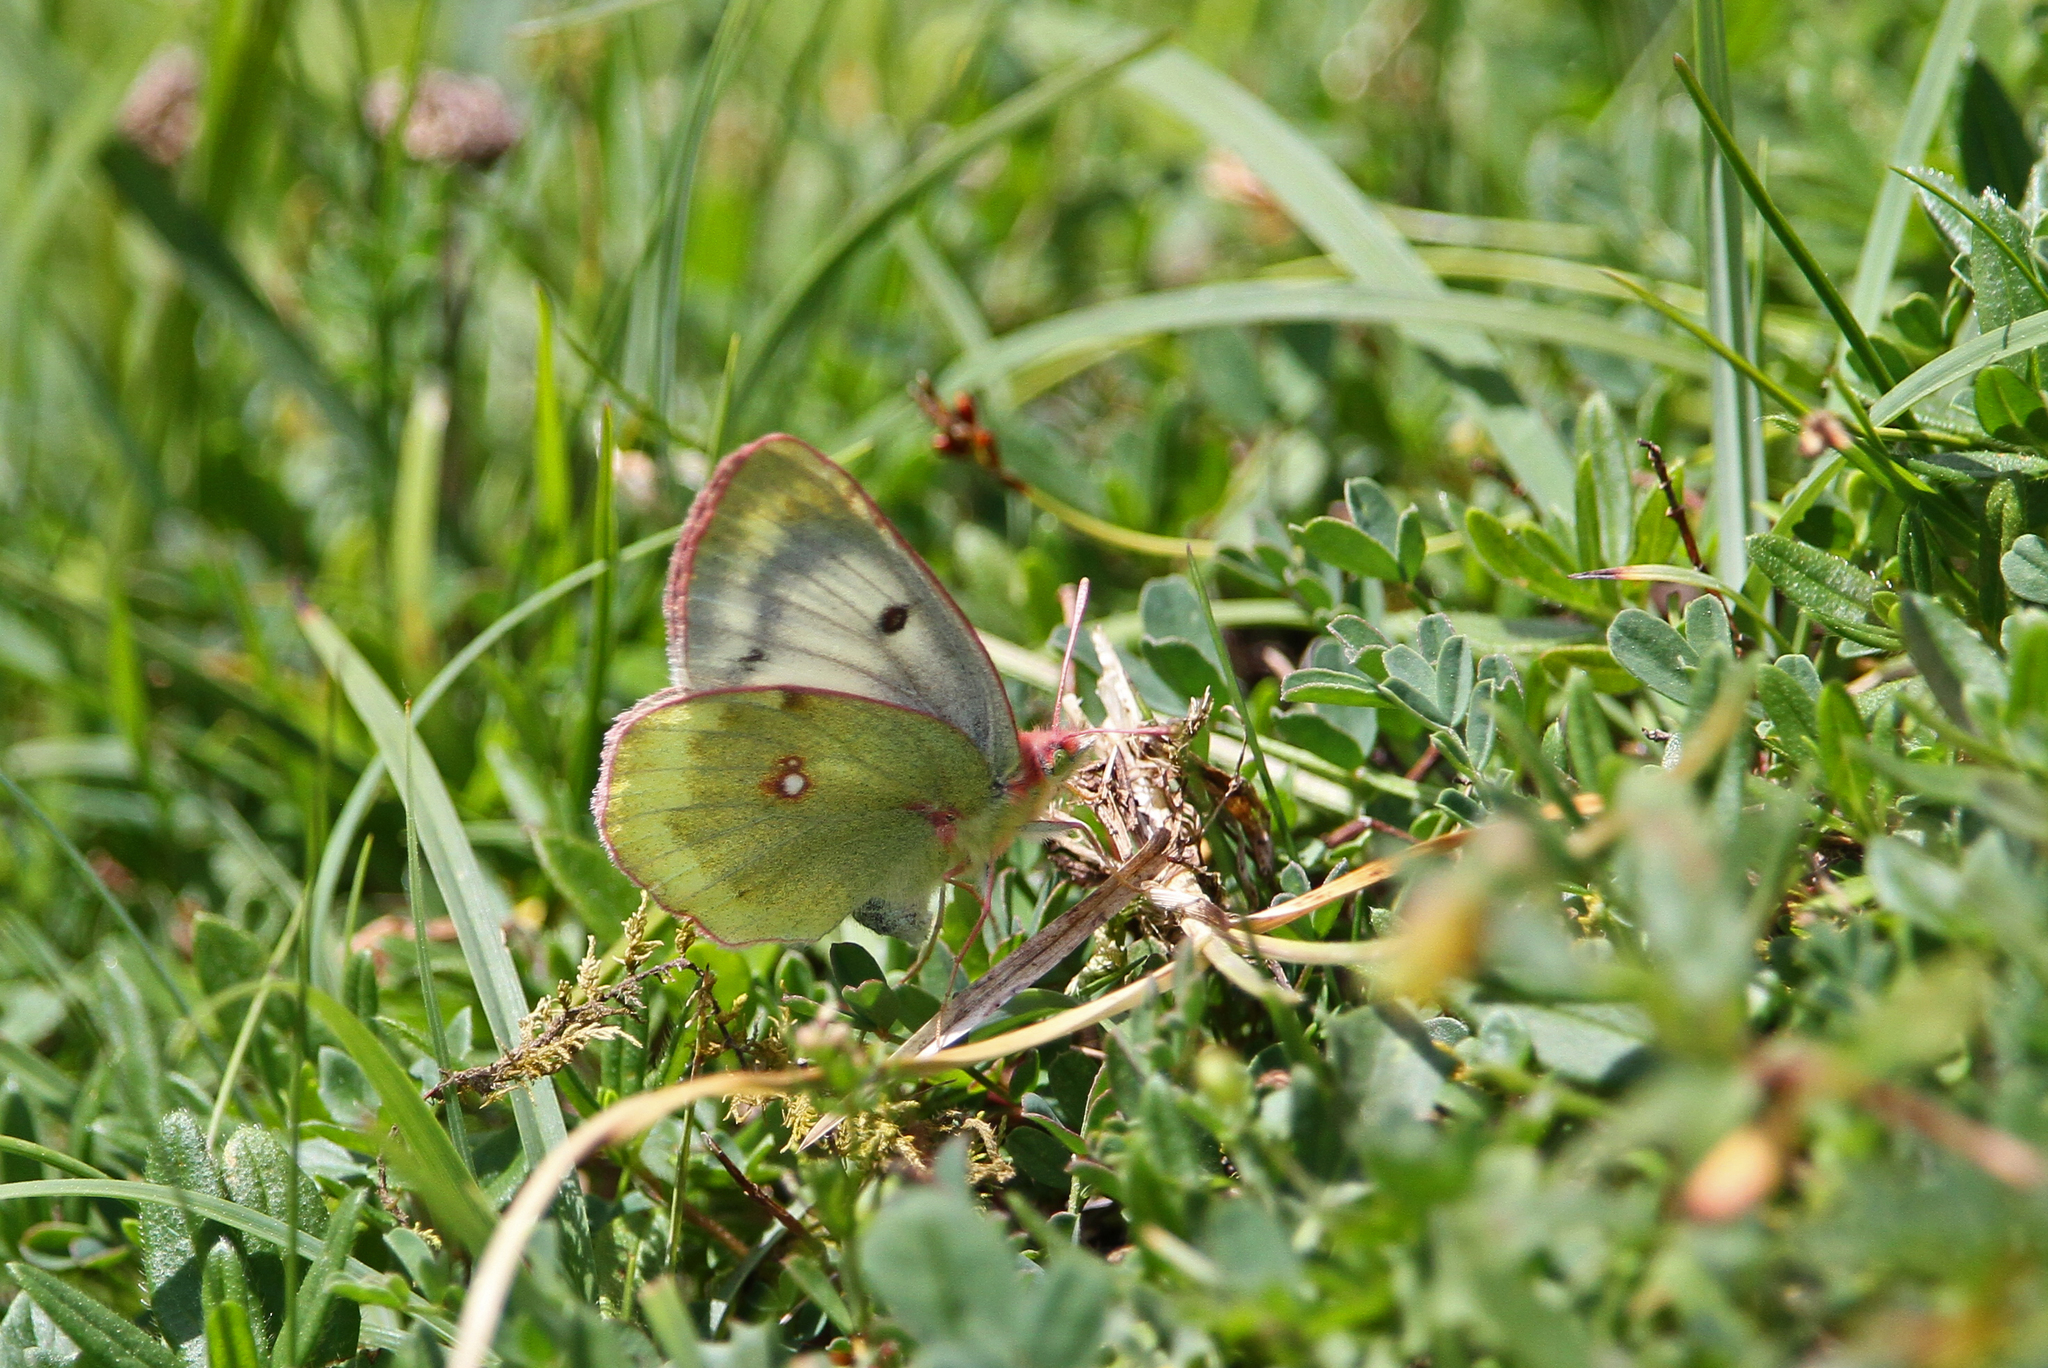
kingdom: Animalia
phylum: Arthropoda
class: Insecta
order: Lepidoptera
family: Pieridae
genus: Colias
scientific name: Colias phicomone
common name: Mountain clouded yellow
